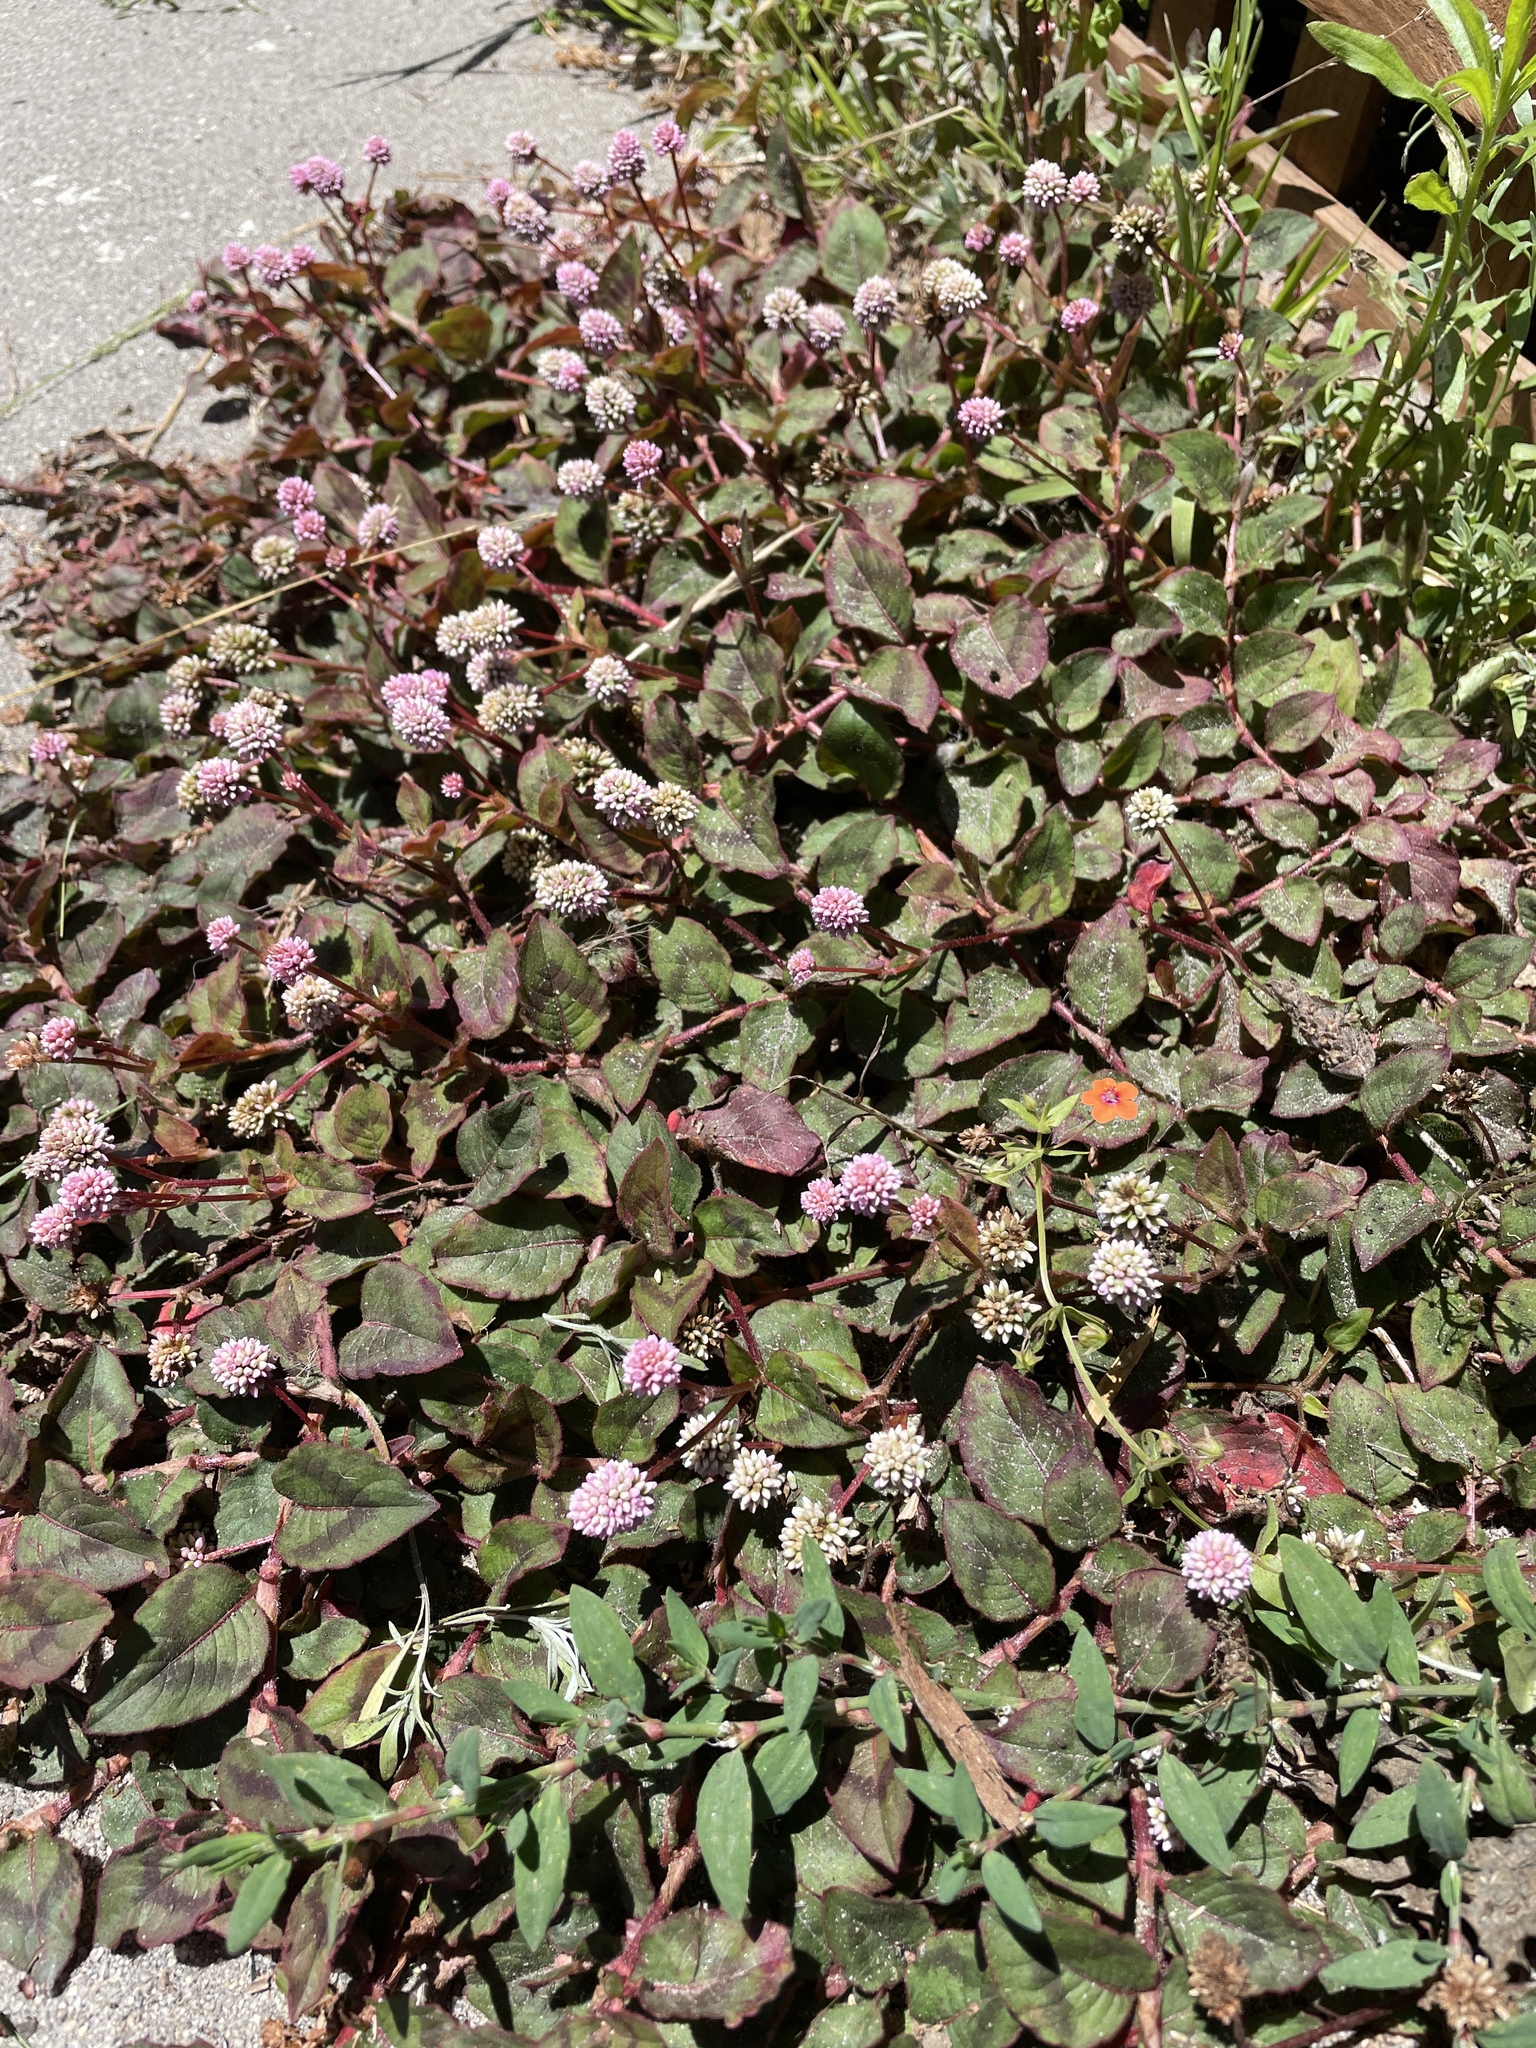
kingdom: Plantae
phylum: Tracheophyta
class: Magnoliopsida
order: Caryophyllales
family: Polygonaceae
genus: Persicaria
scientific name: Persicaria capitata
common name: Pinkhead smartweed
